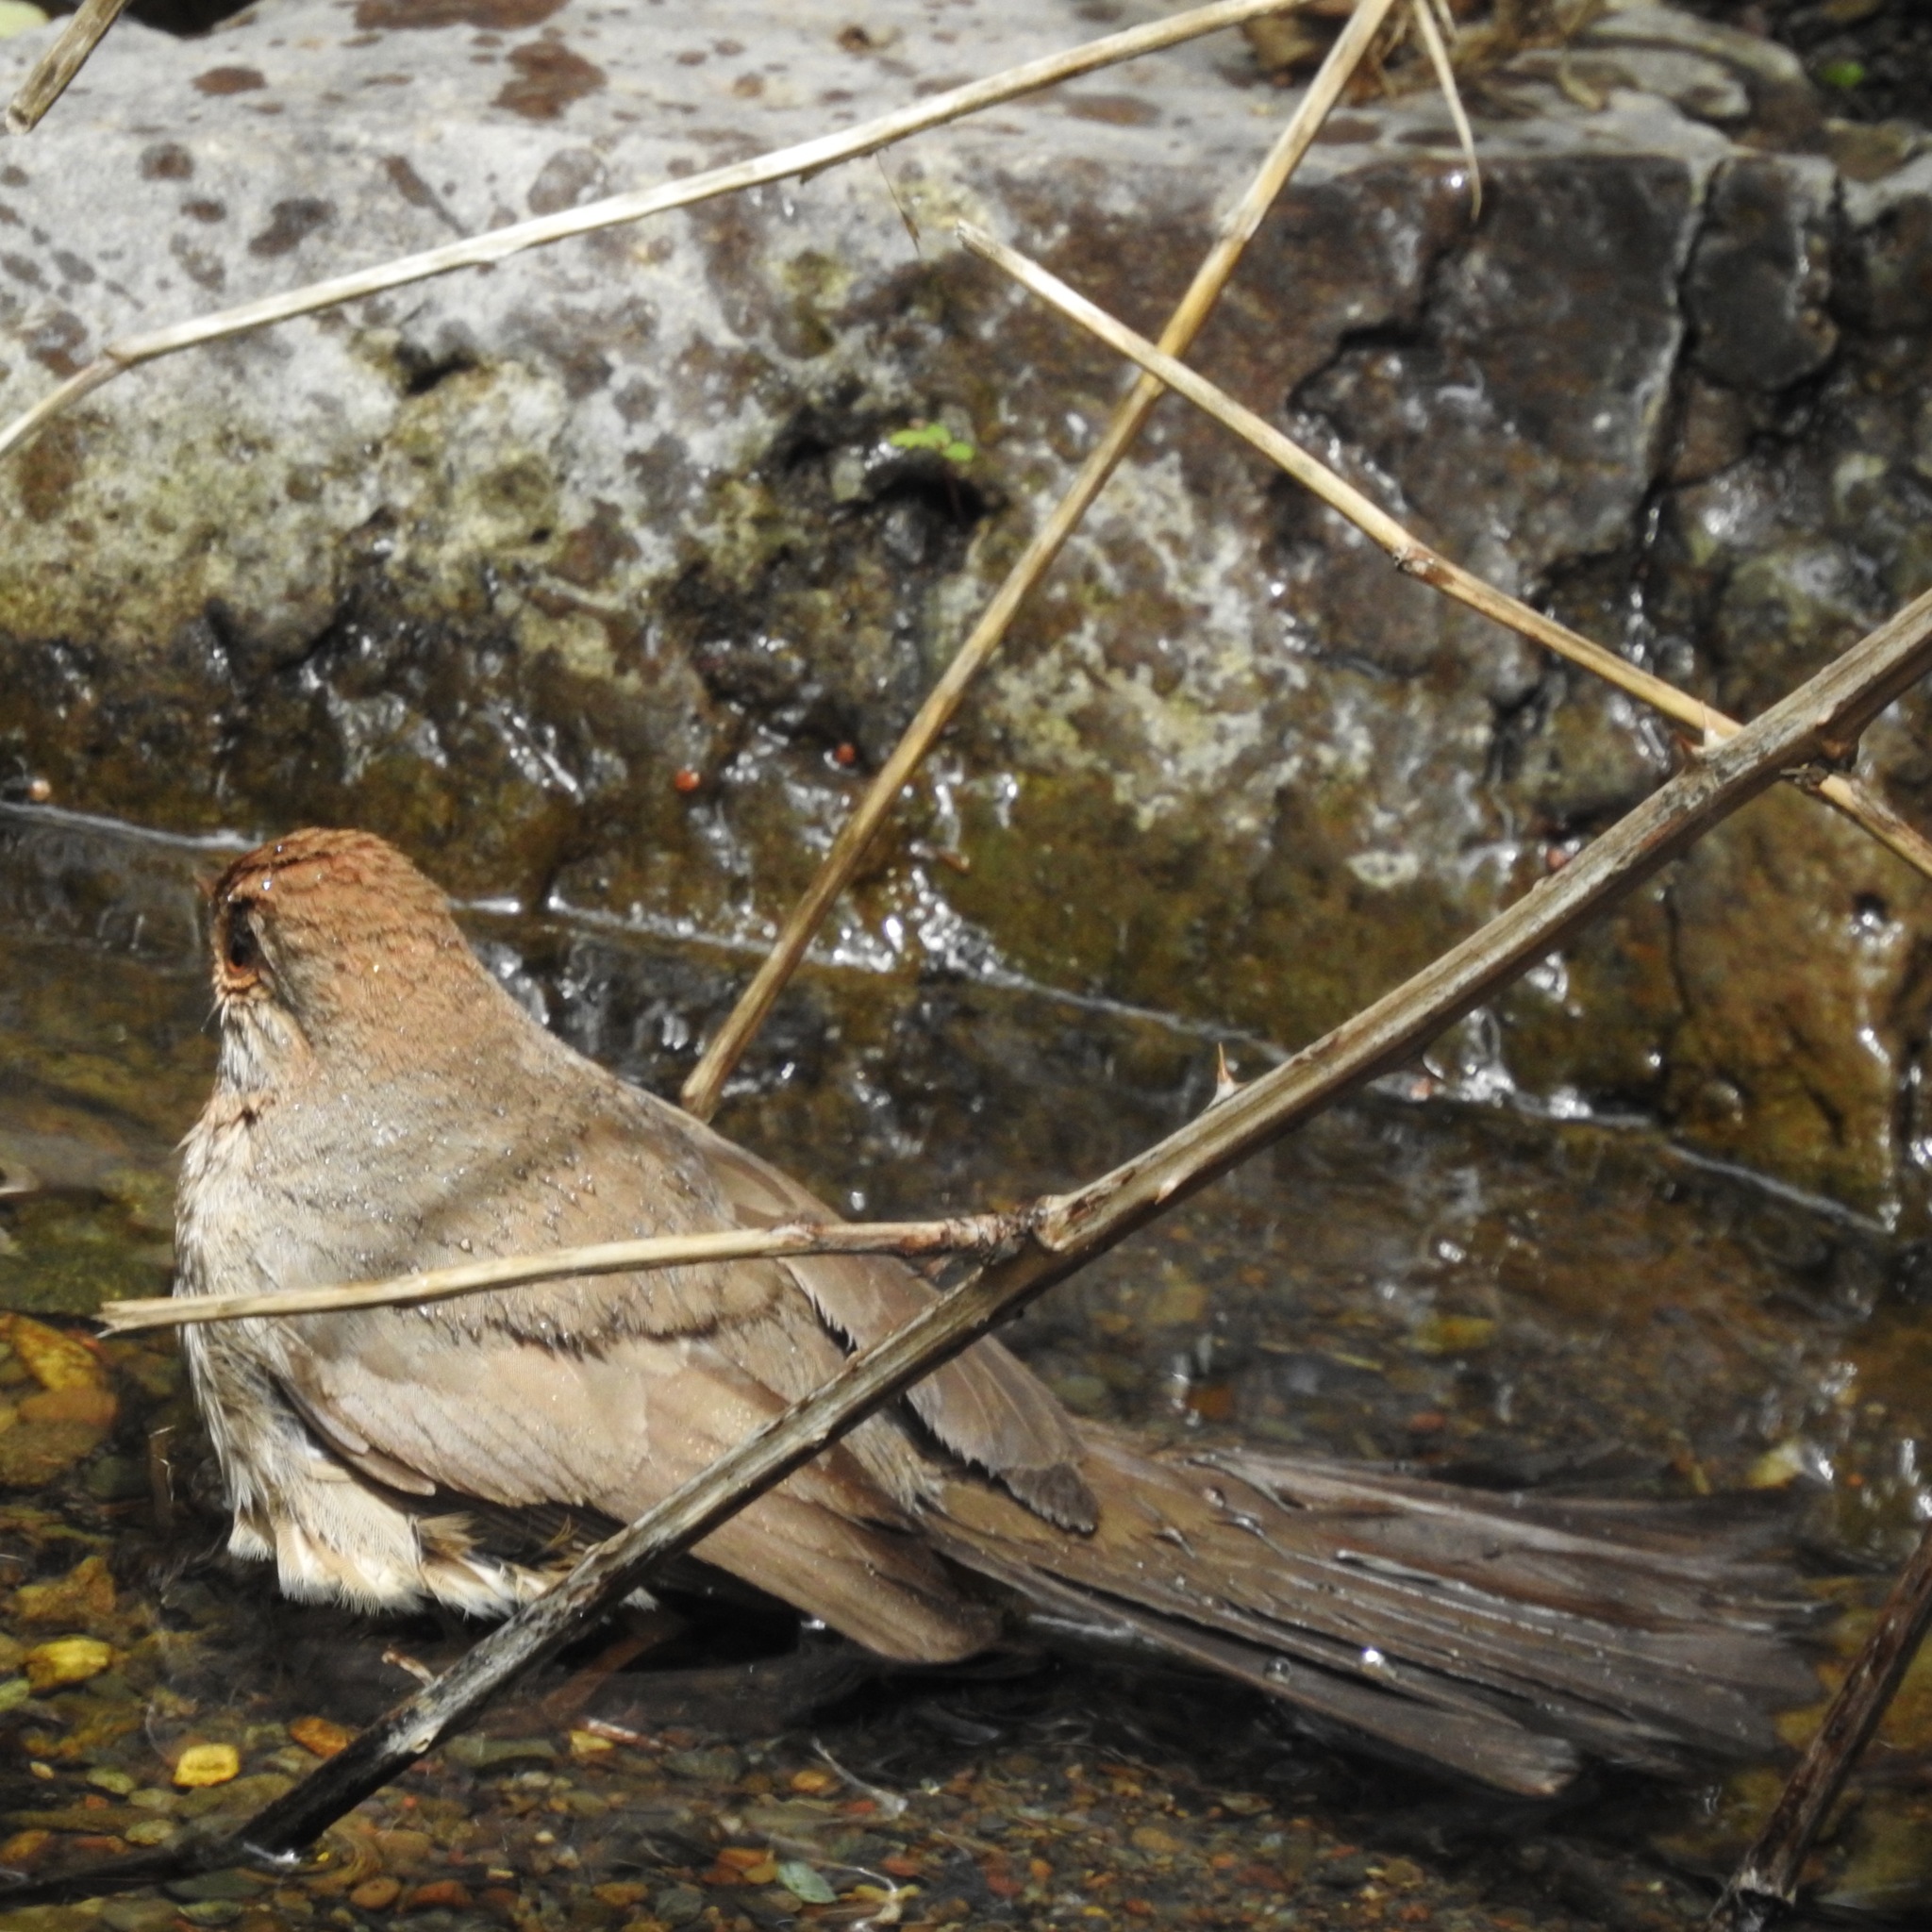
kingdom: Animalia
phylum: Chordata
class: Aves
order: Passeriformes
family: Passerellidae
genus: Melozone
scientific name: Melozone crissalis
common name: California towhee
